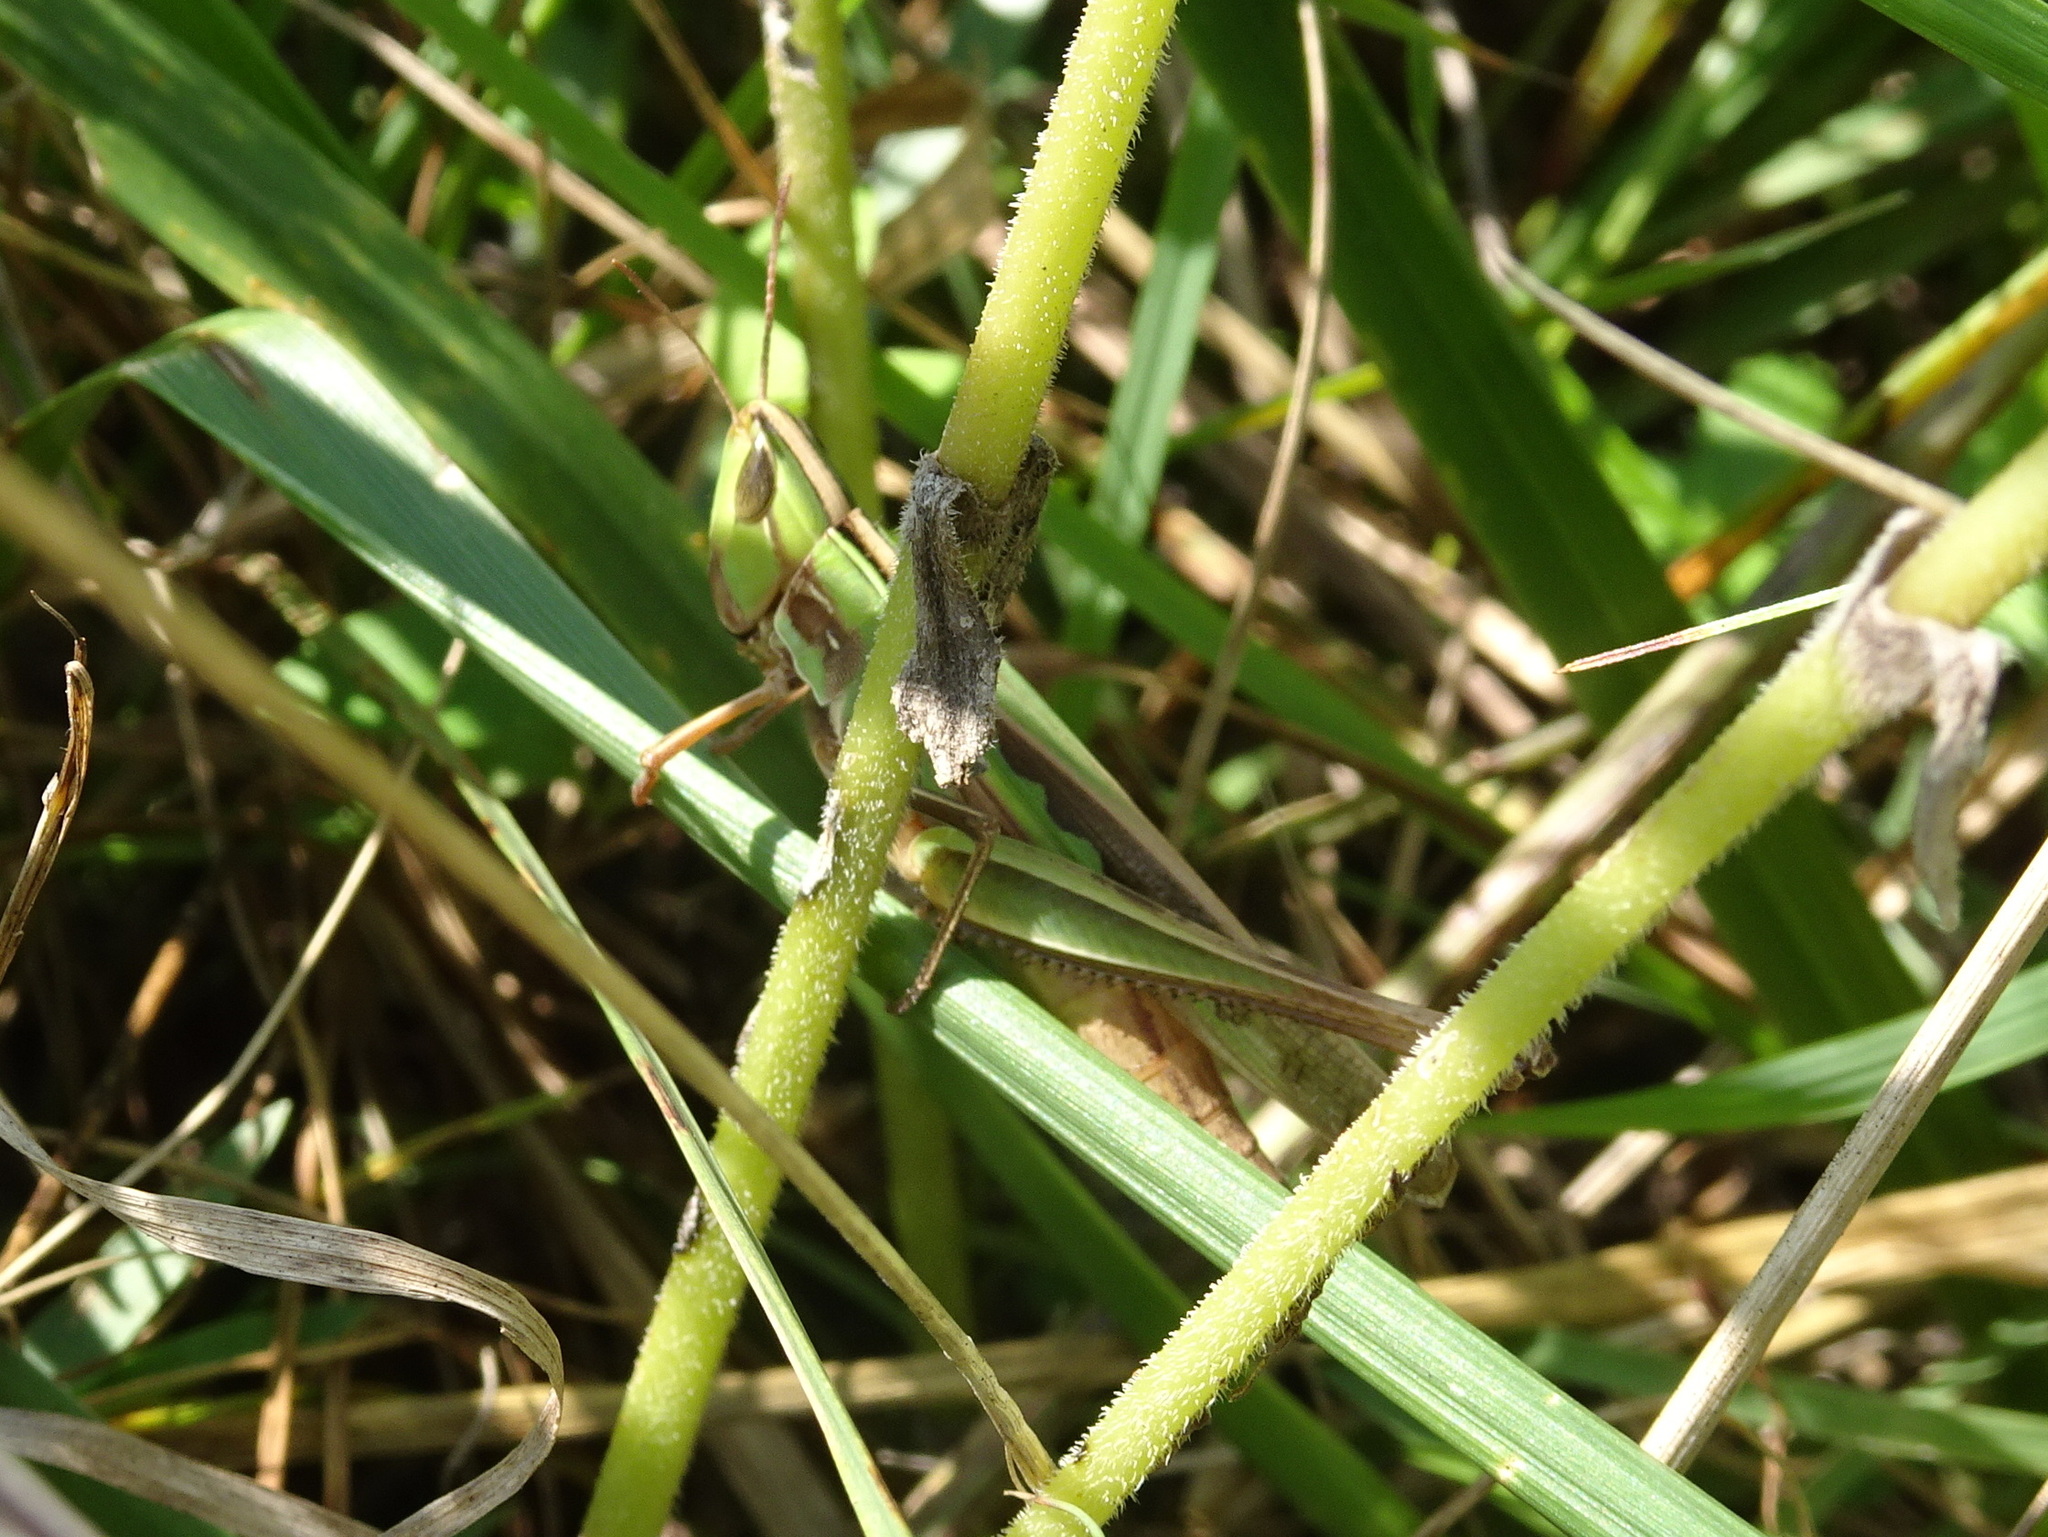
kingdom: Animalia
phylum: Arthropoda
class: Insecta
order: Orthoptera
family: Acrididae
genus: Syrbula
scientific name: Syrbula admirabilis
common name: Handsome grasshopper
